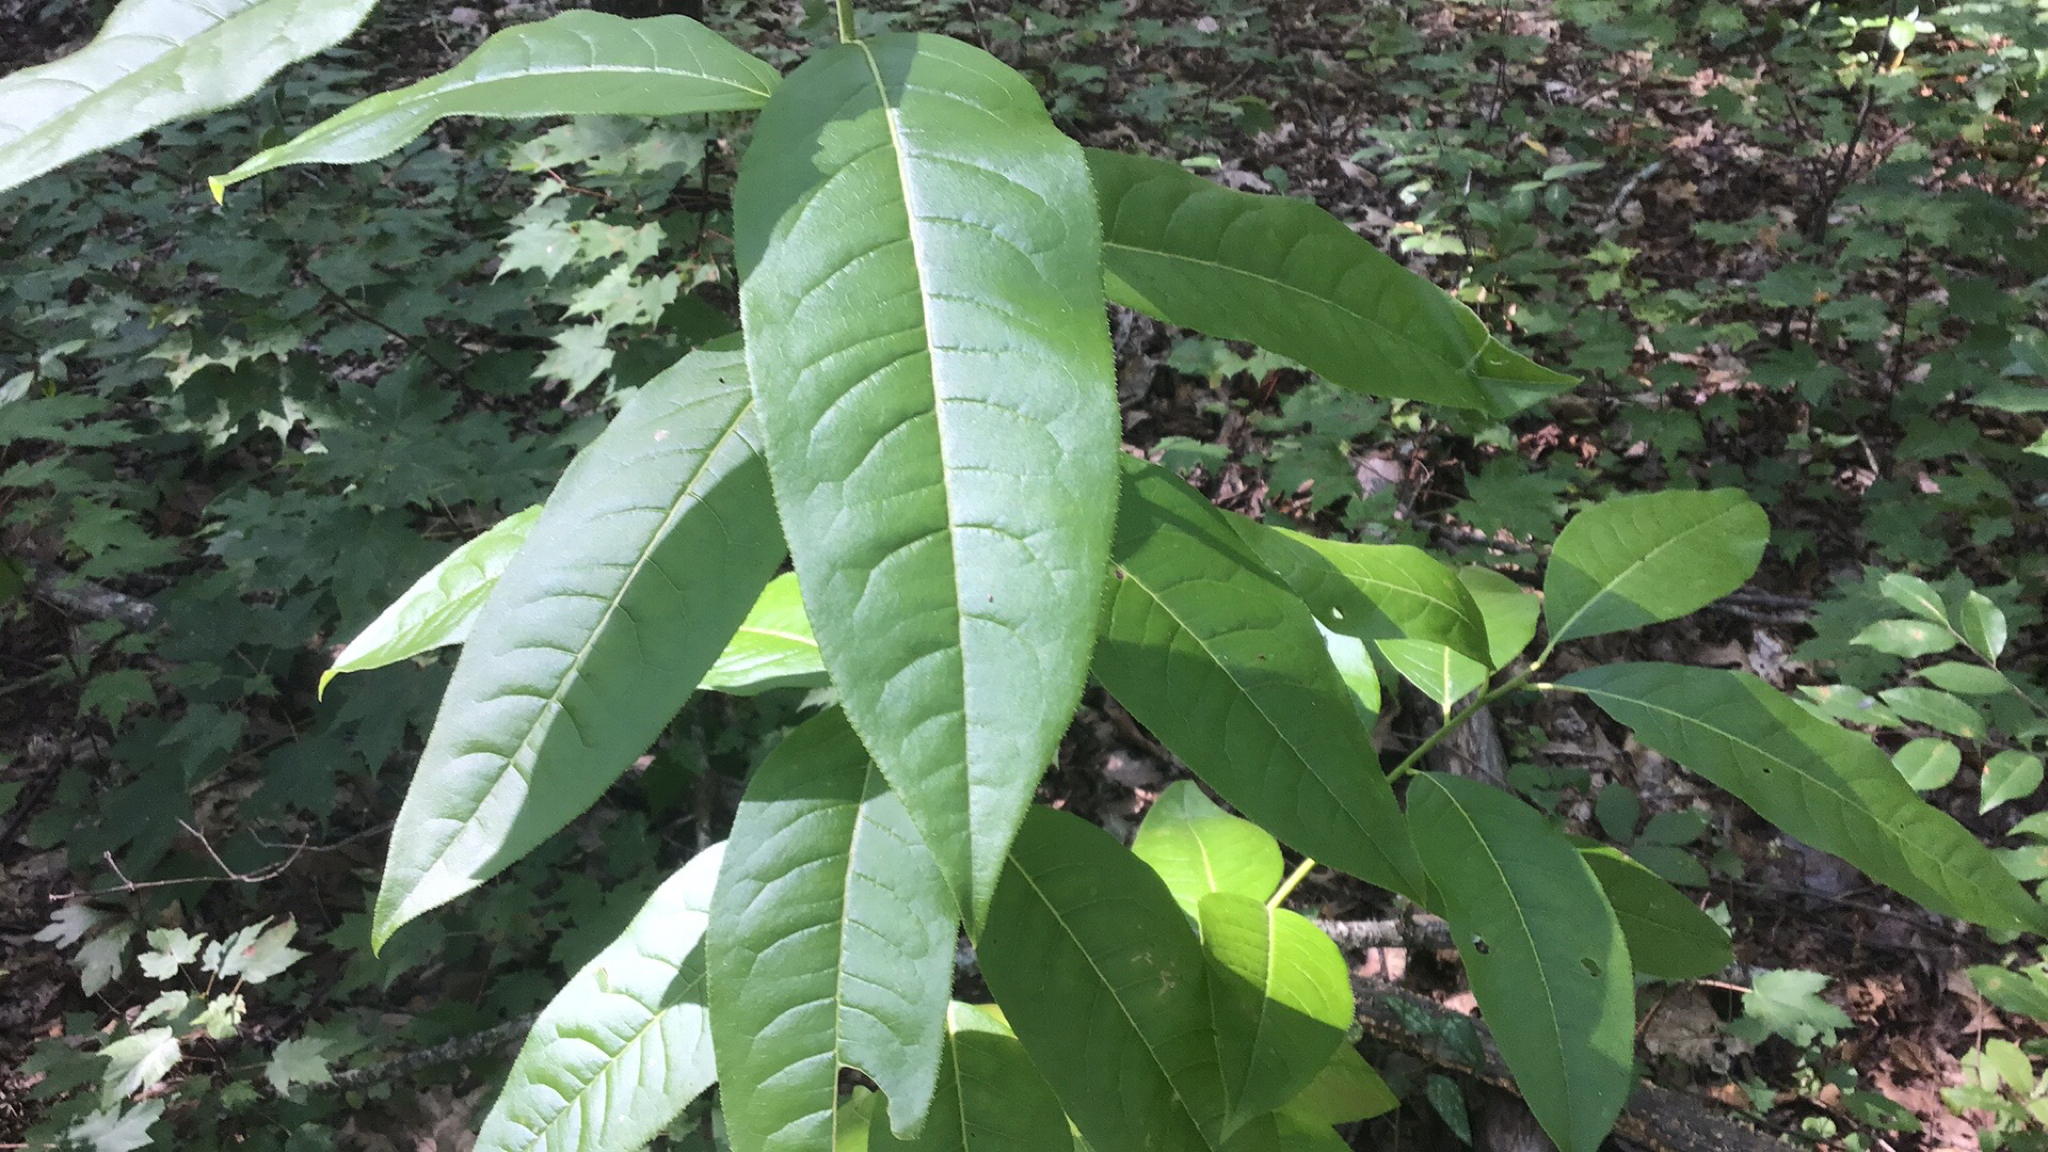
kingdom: Plantae
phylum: Tracheophyta
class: Magnoliopsida
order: Ericales
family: Ericaceae
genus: Oxydendrum
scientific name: Oxydendrum arboreum
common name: Sourwood
